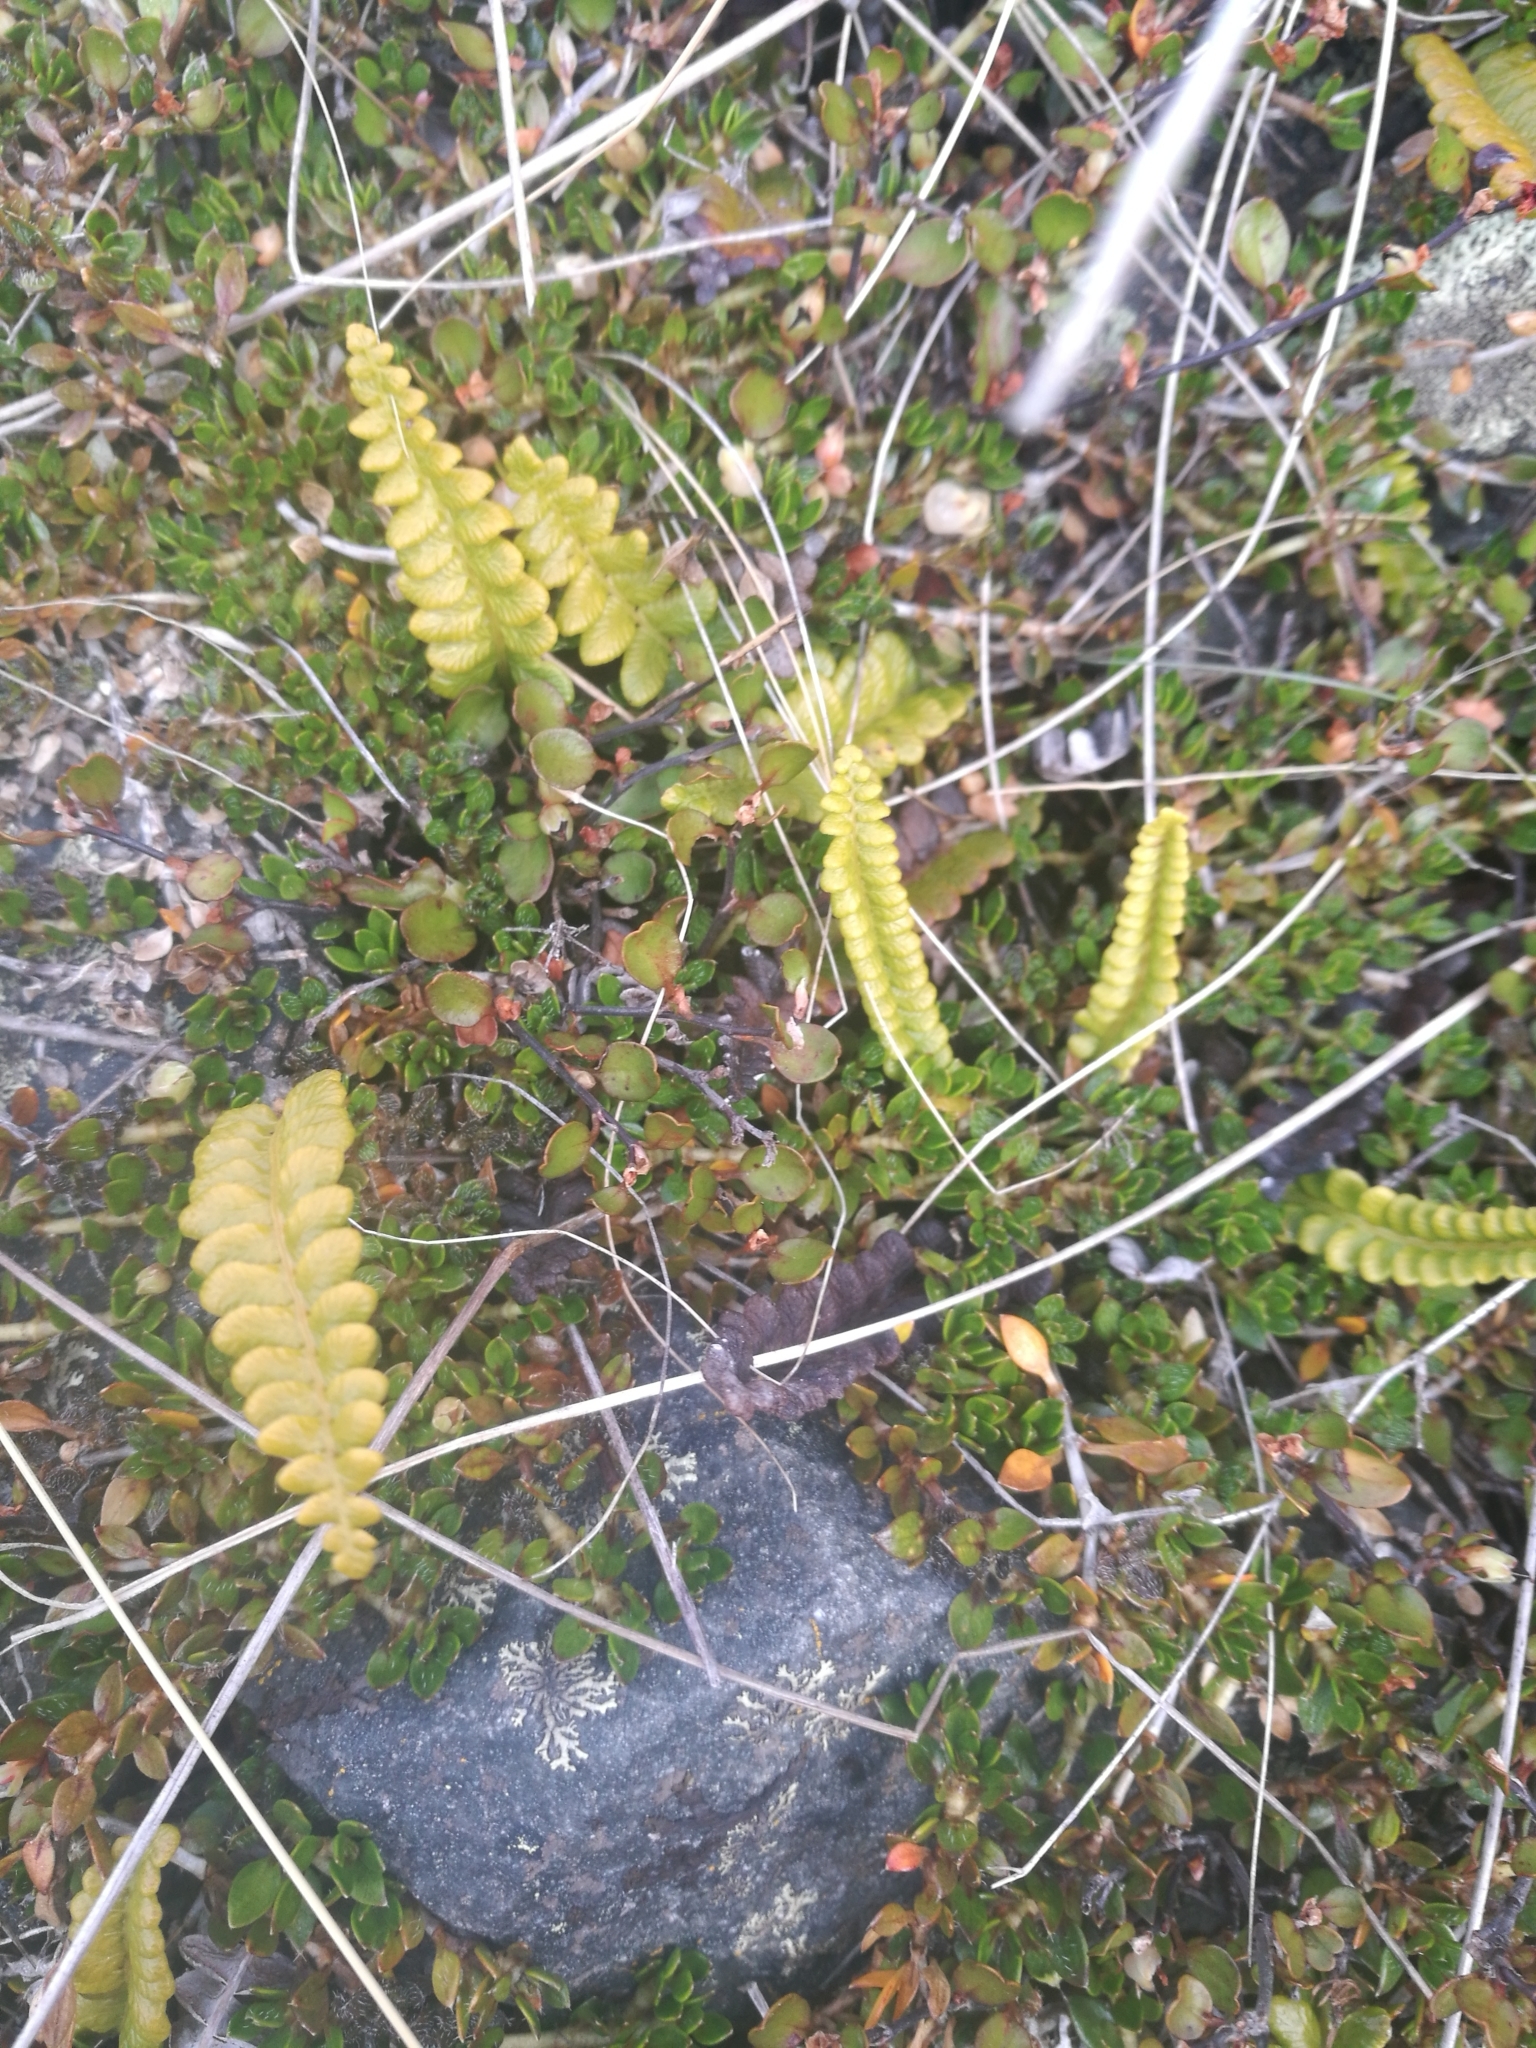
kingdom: Plantae
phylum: Tracheophyta
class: Polypodiopsida
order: Polypodiales
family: Blechnaceae
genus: Austroblechnum
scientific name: Austroblechnum penna-marina
